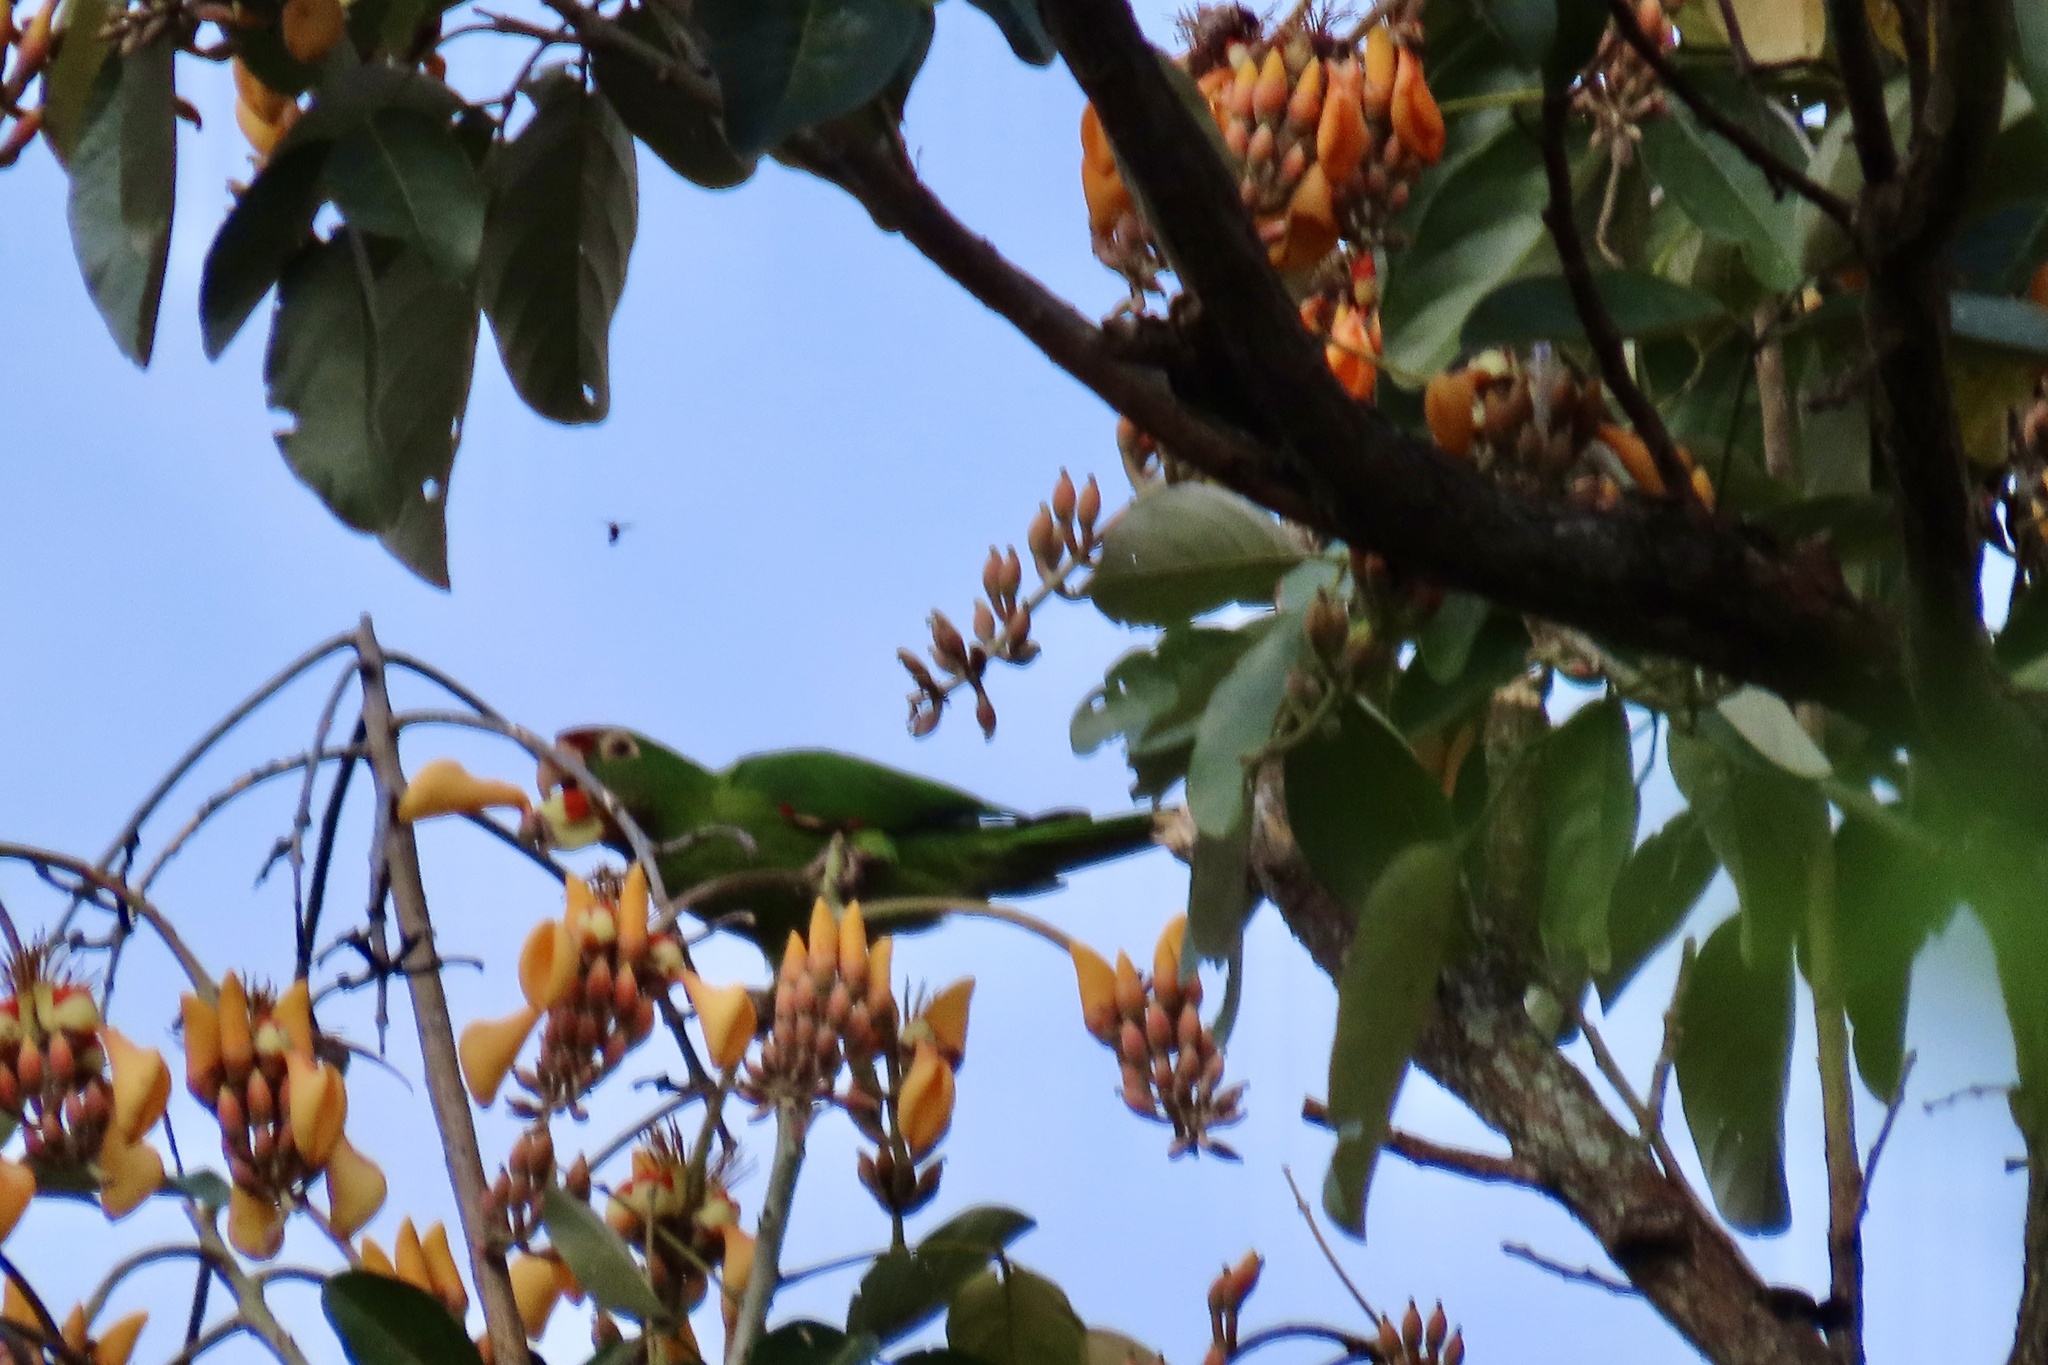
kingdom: Animalia
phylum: Chordata
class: Aves
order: Psittaciformes
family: Psittacidae
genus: Aratinga
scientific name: Aratinga finschi
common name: Crimson-fronted parakeet
